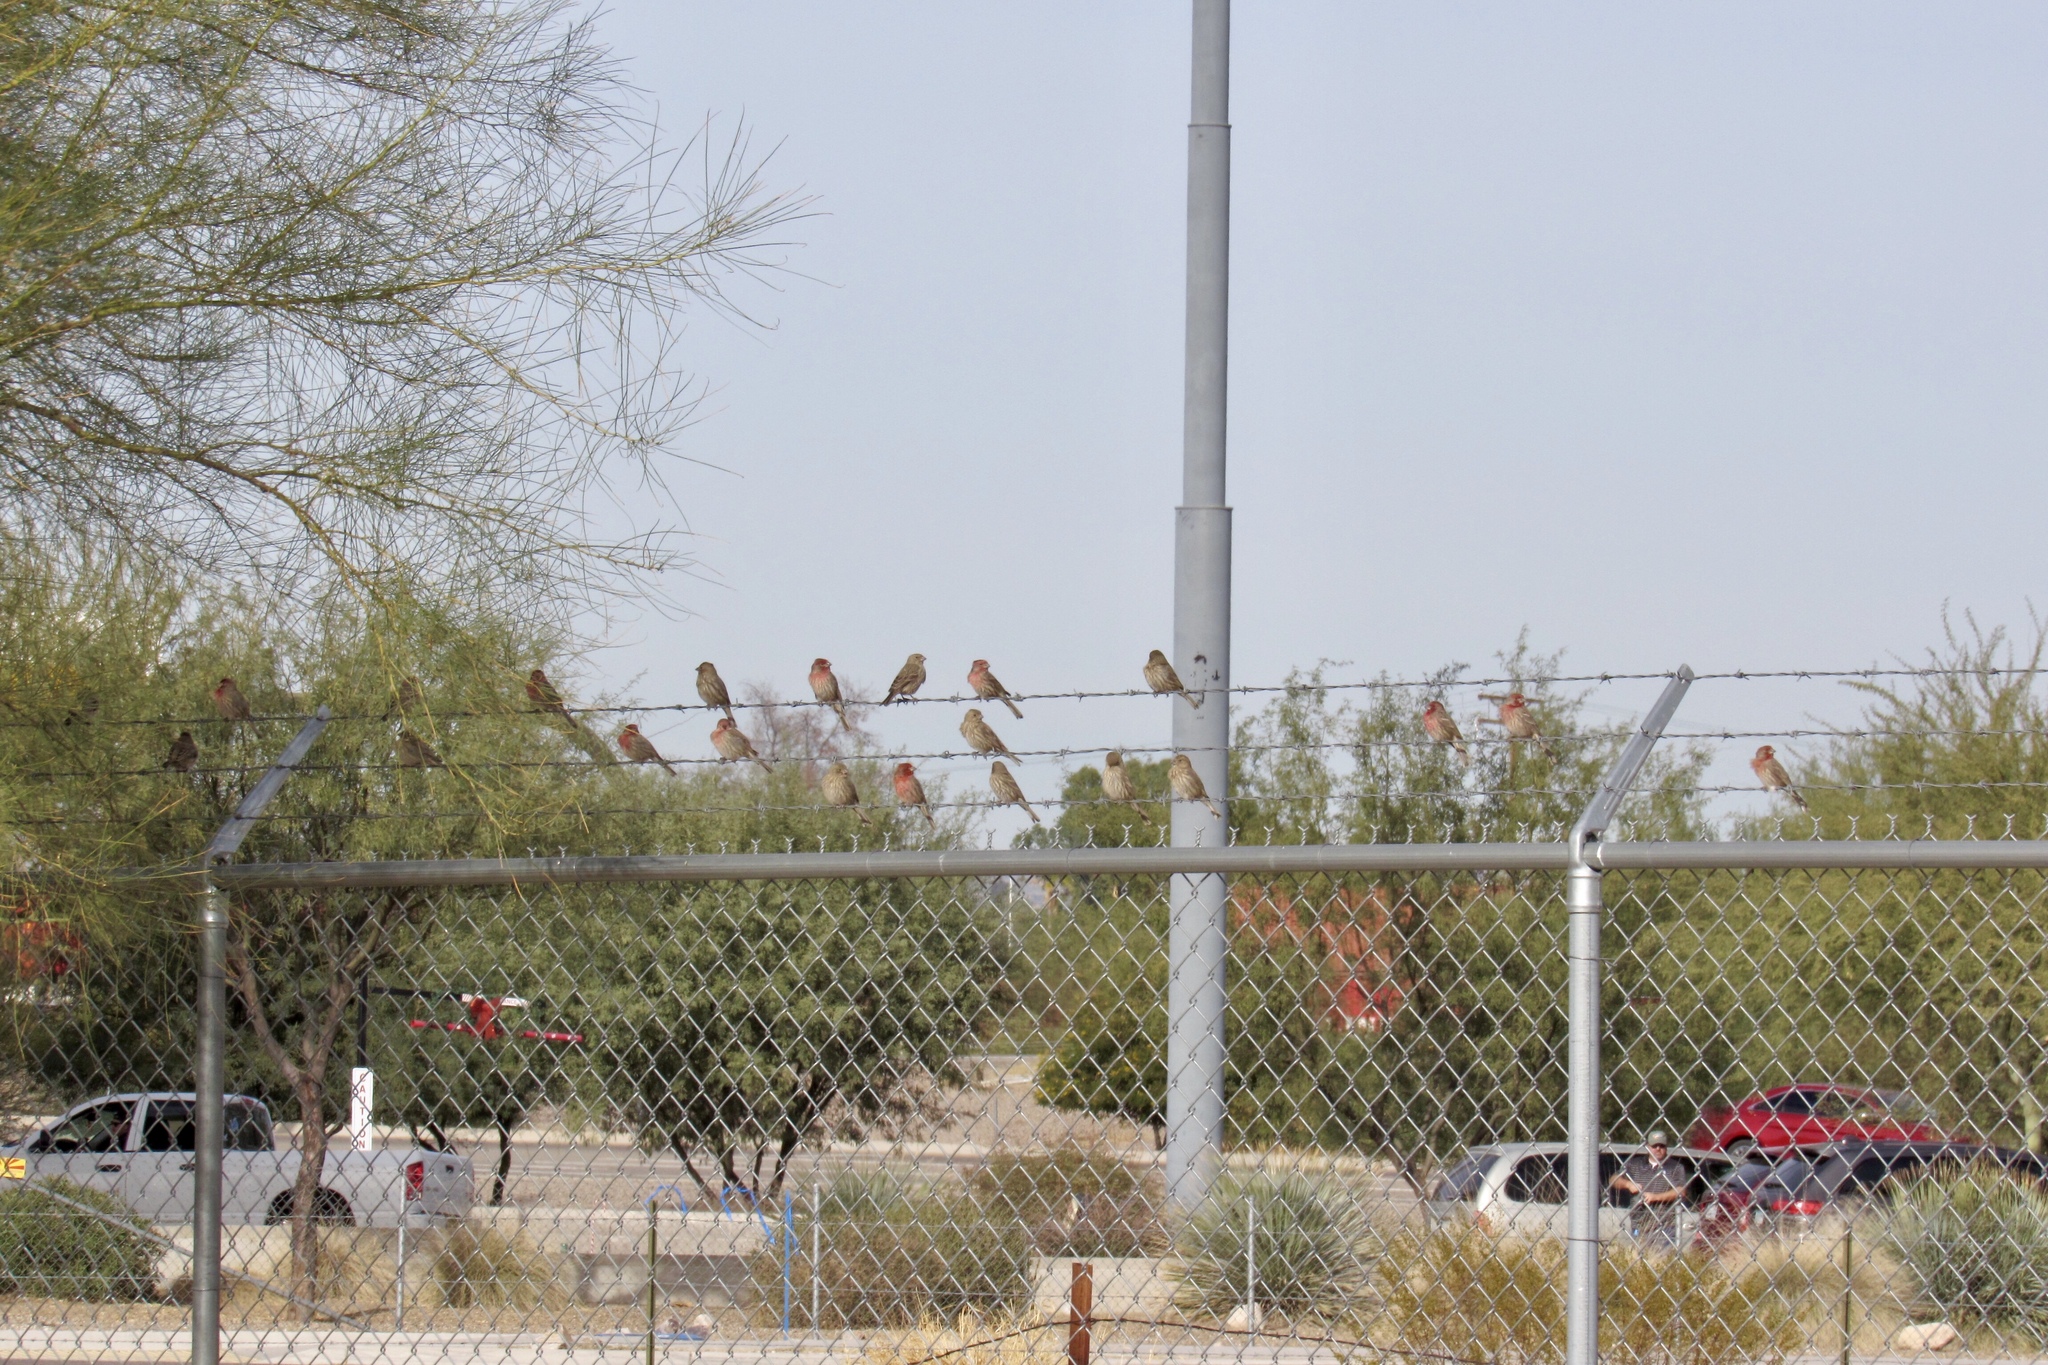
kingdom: Animalia
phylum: Chordata
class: Aves
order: Passeriformes
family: Fringillidae
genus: Haemorhous
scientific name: Haemorhous mexicanus
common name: House finch
